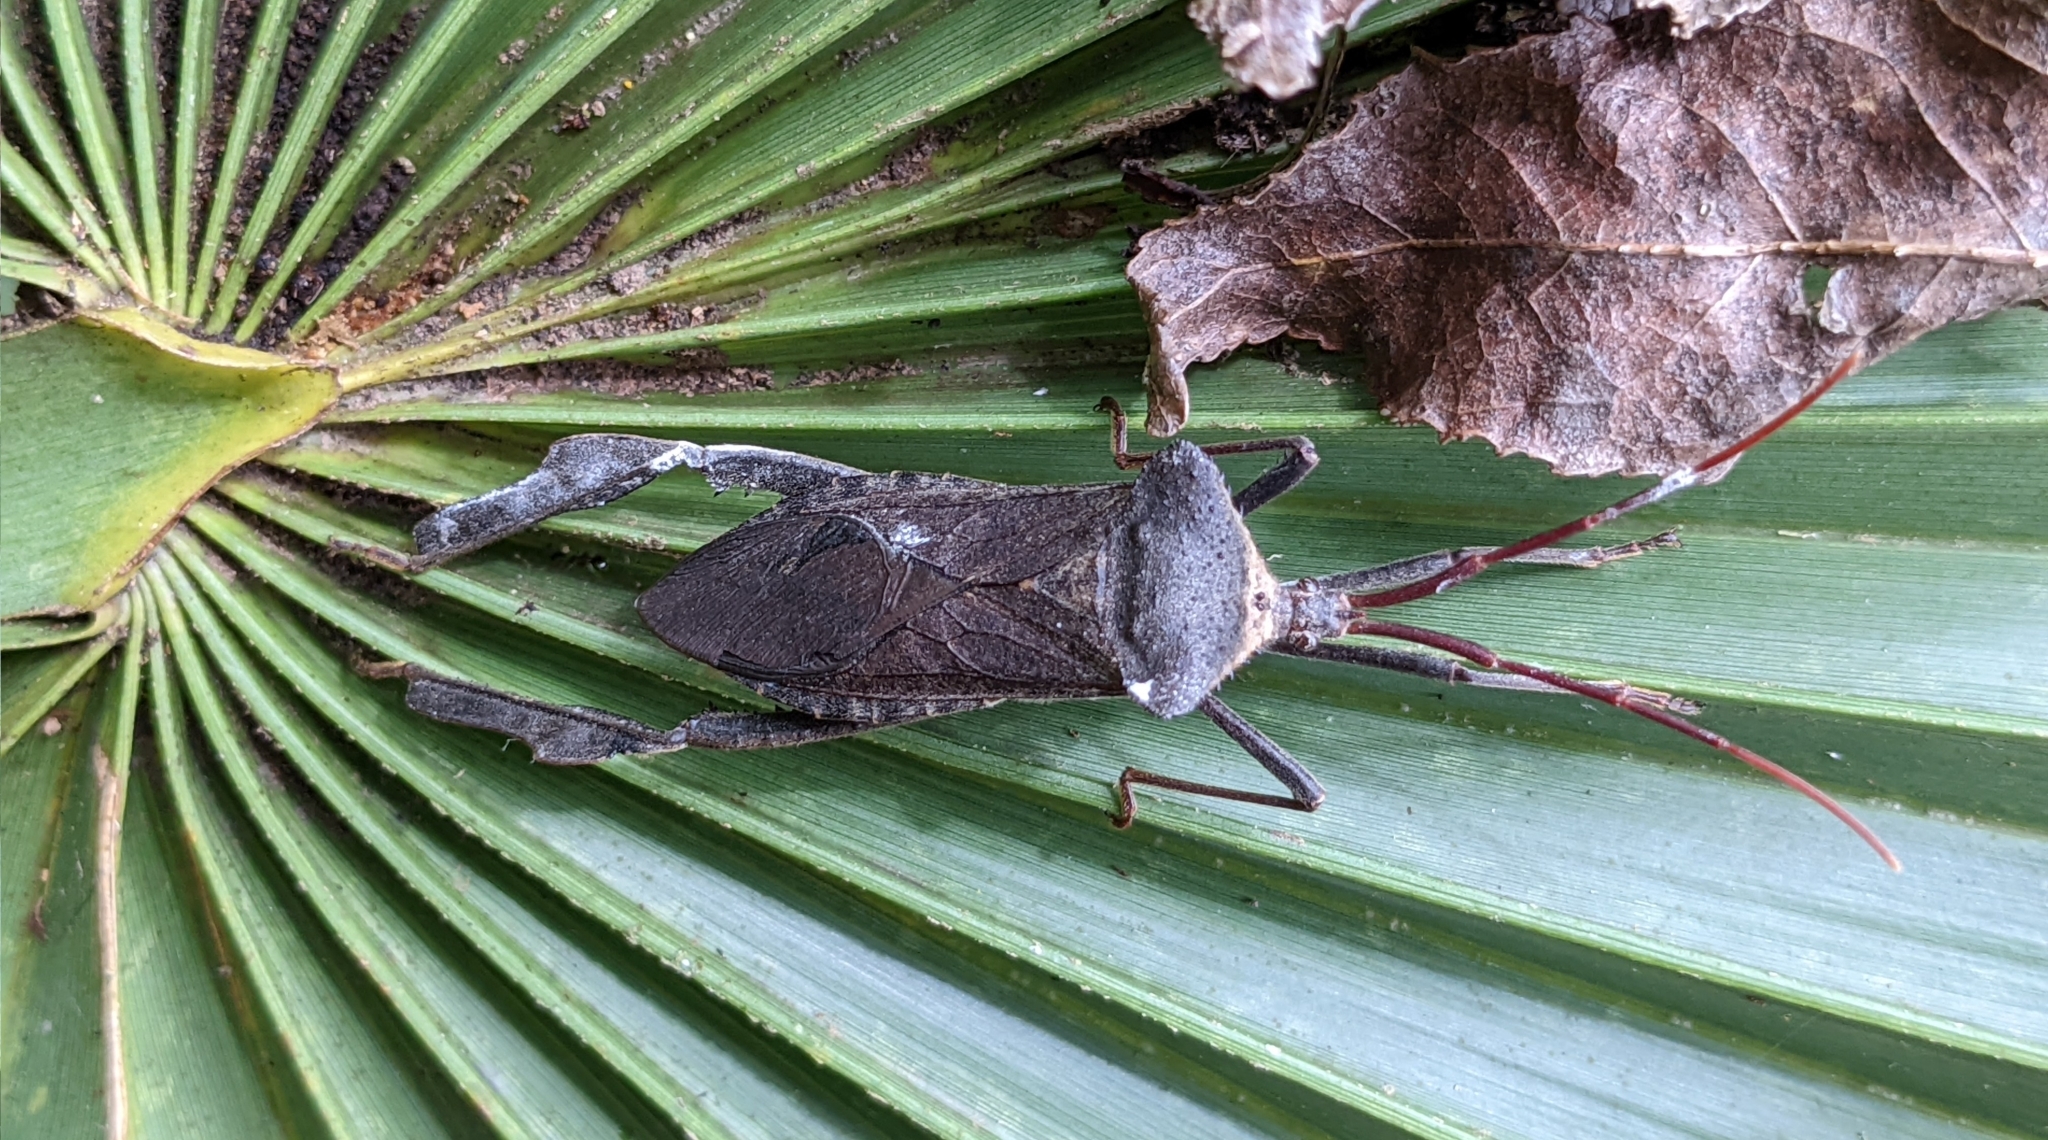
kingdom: Animalia
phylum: Arthropoda
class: Insecta
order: Hemiptera
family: Coreidae
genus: Acanthocephala
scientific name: Acanthocephala declivis
